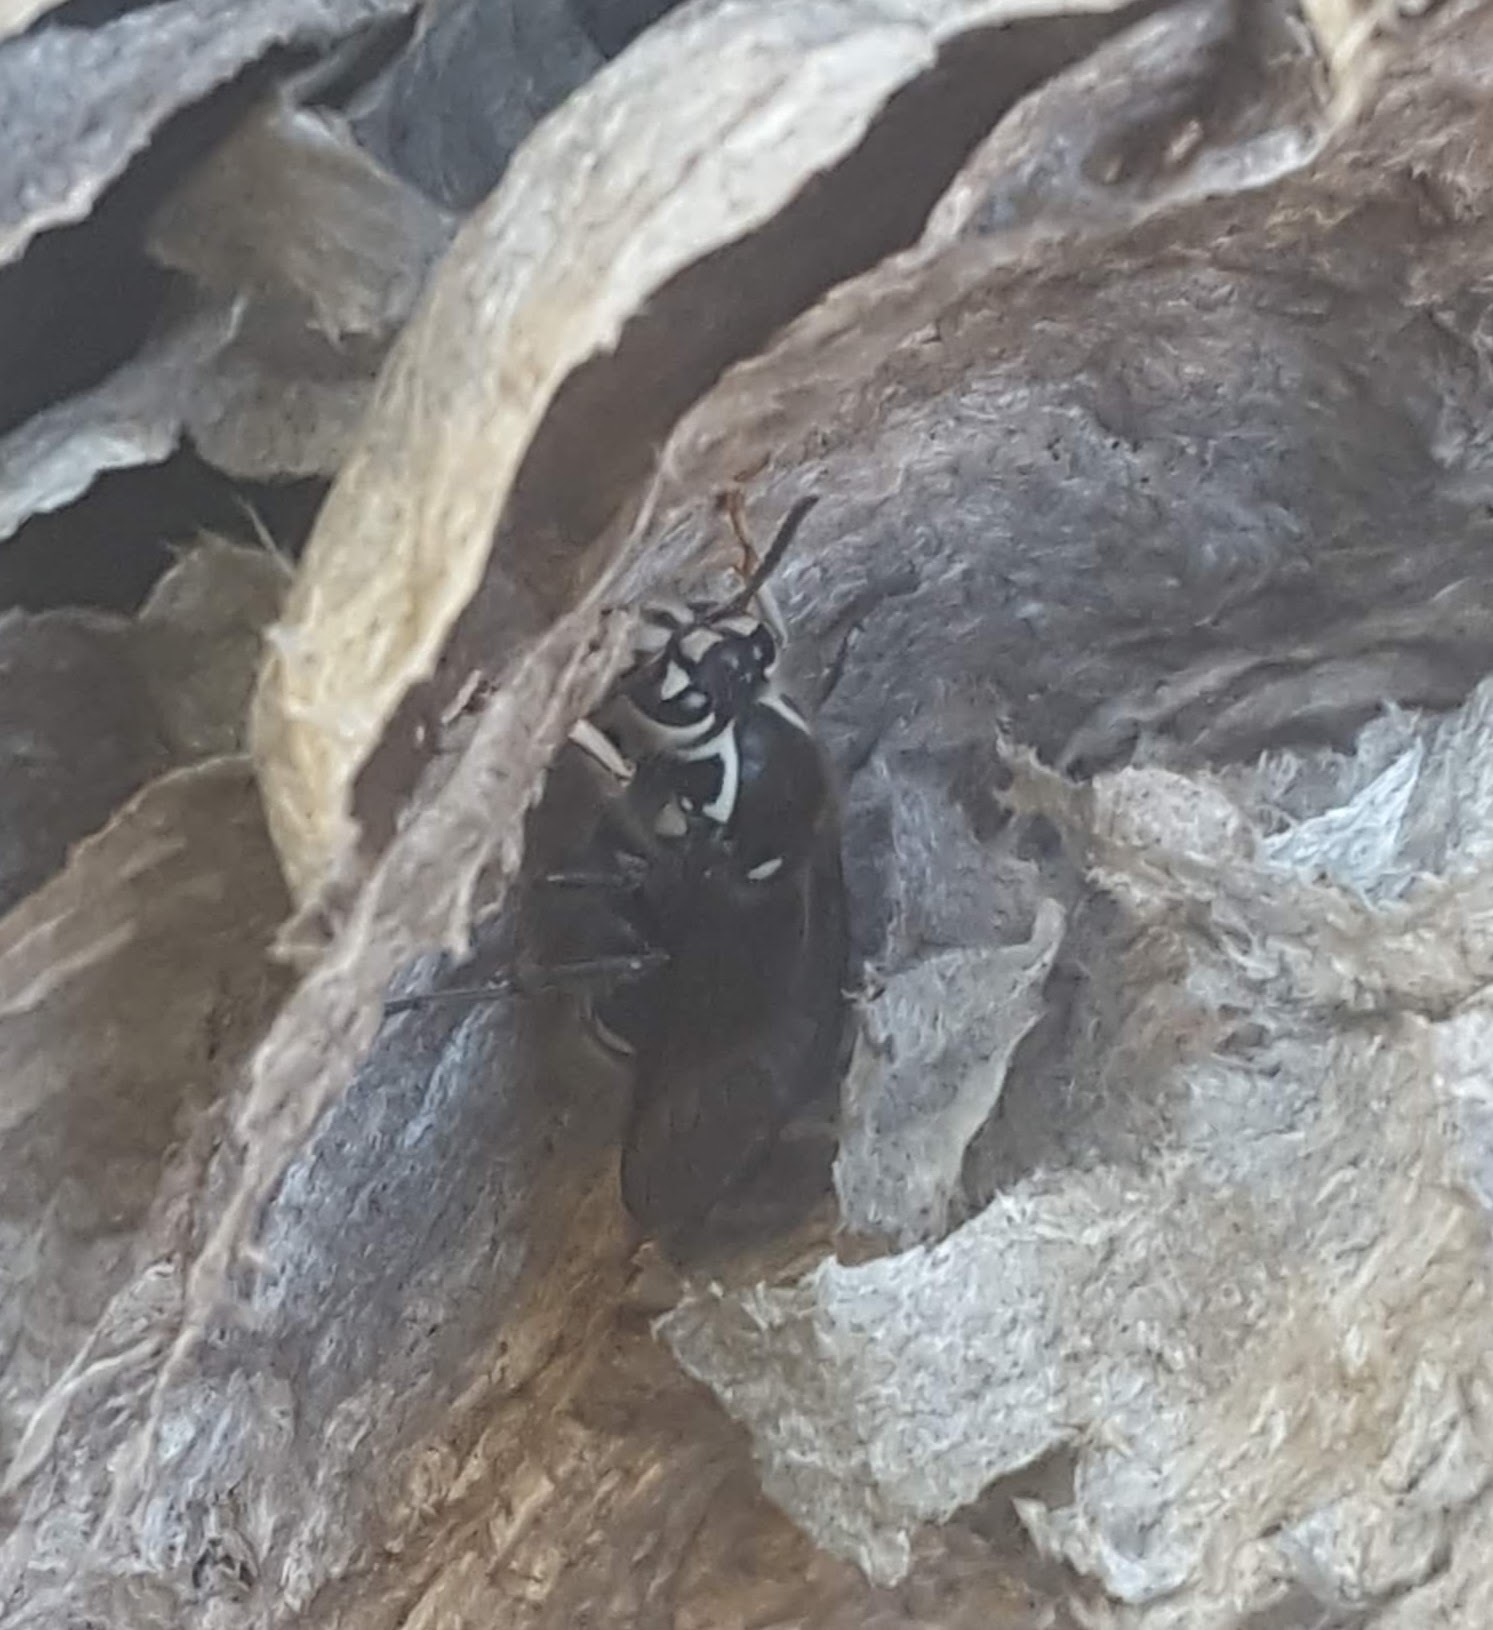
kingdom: Animalia
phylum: Arthropoda
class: Insecta
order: Hymenoptera
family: Vespidae
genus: Dolichovespula
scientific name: Dolichovespula maculata
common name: Bald-faced hornet
